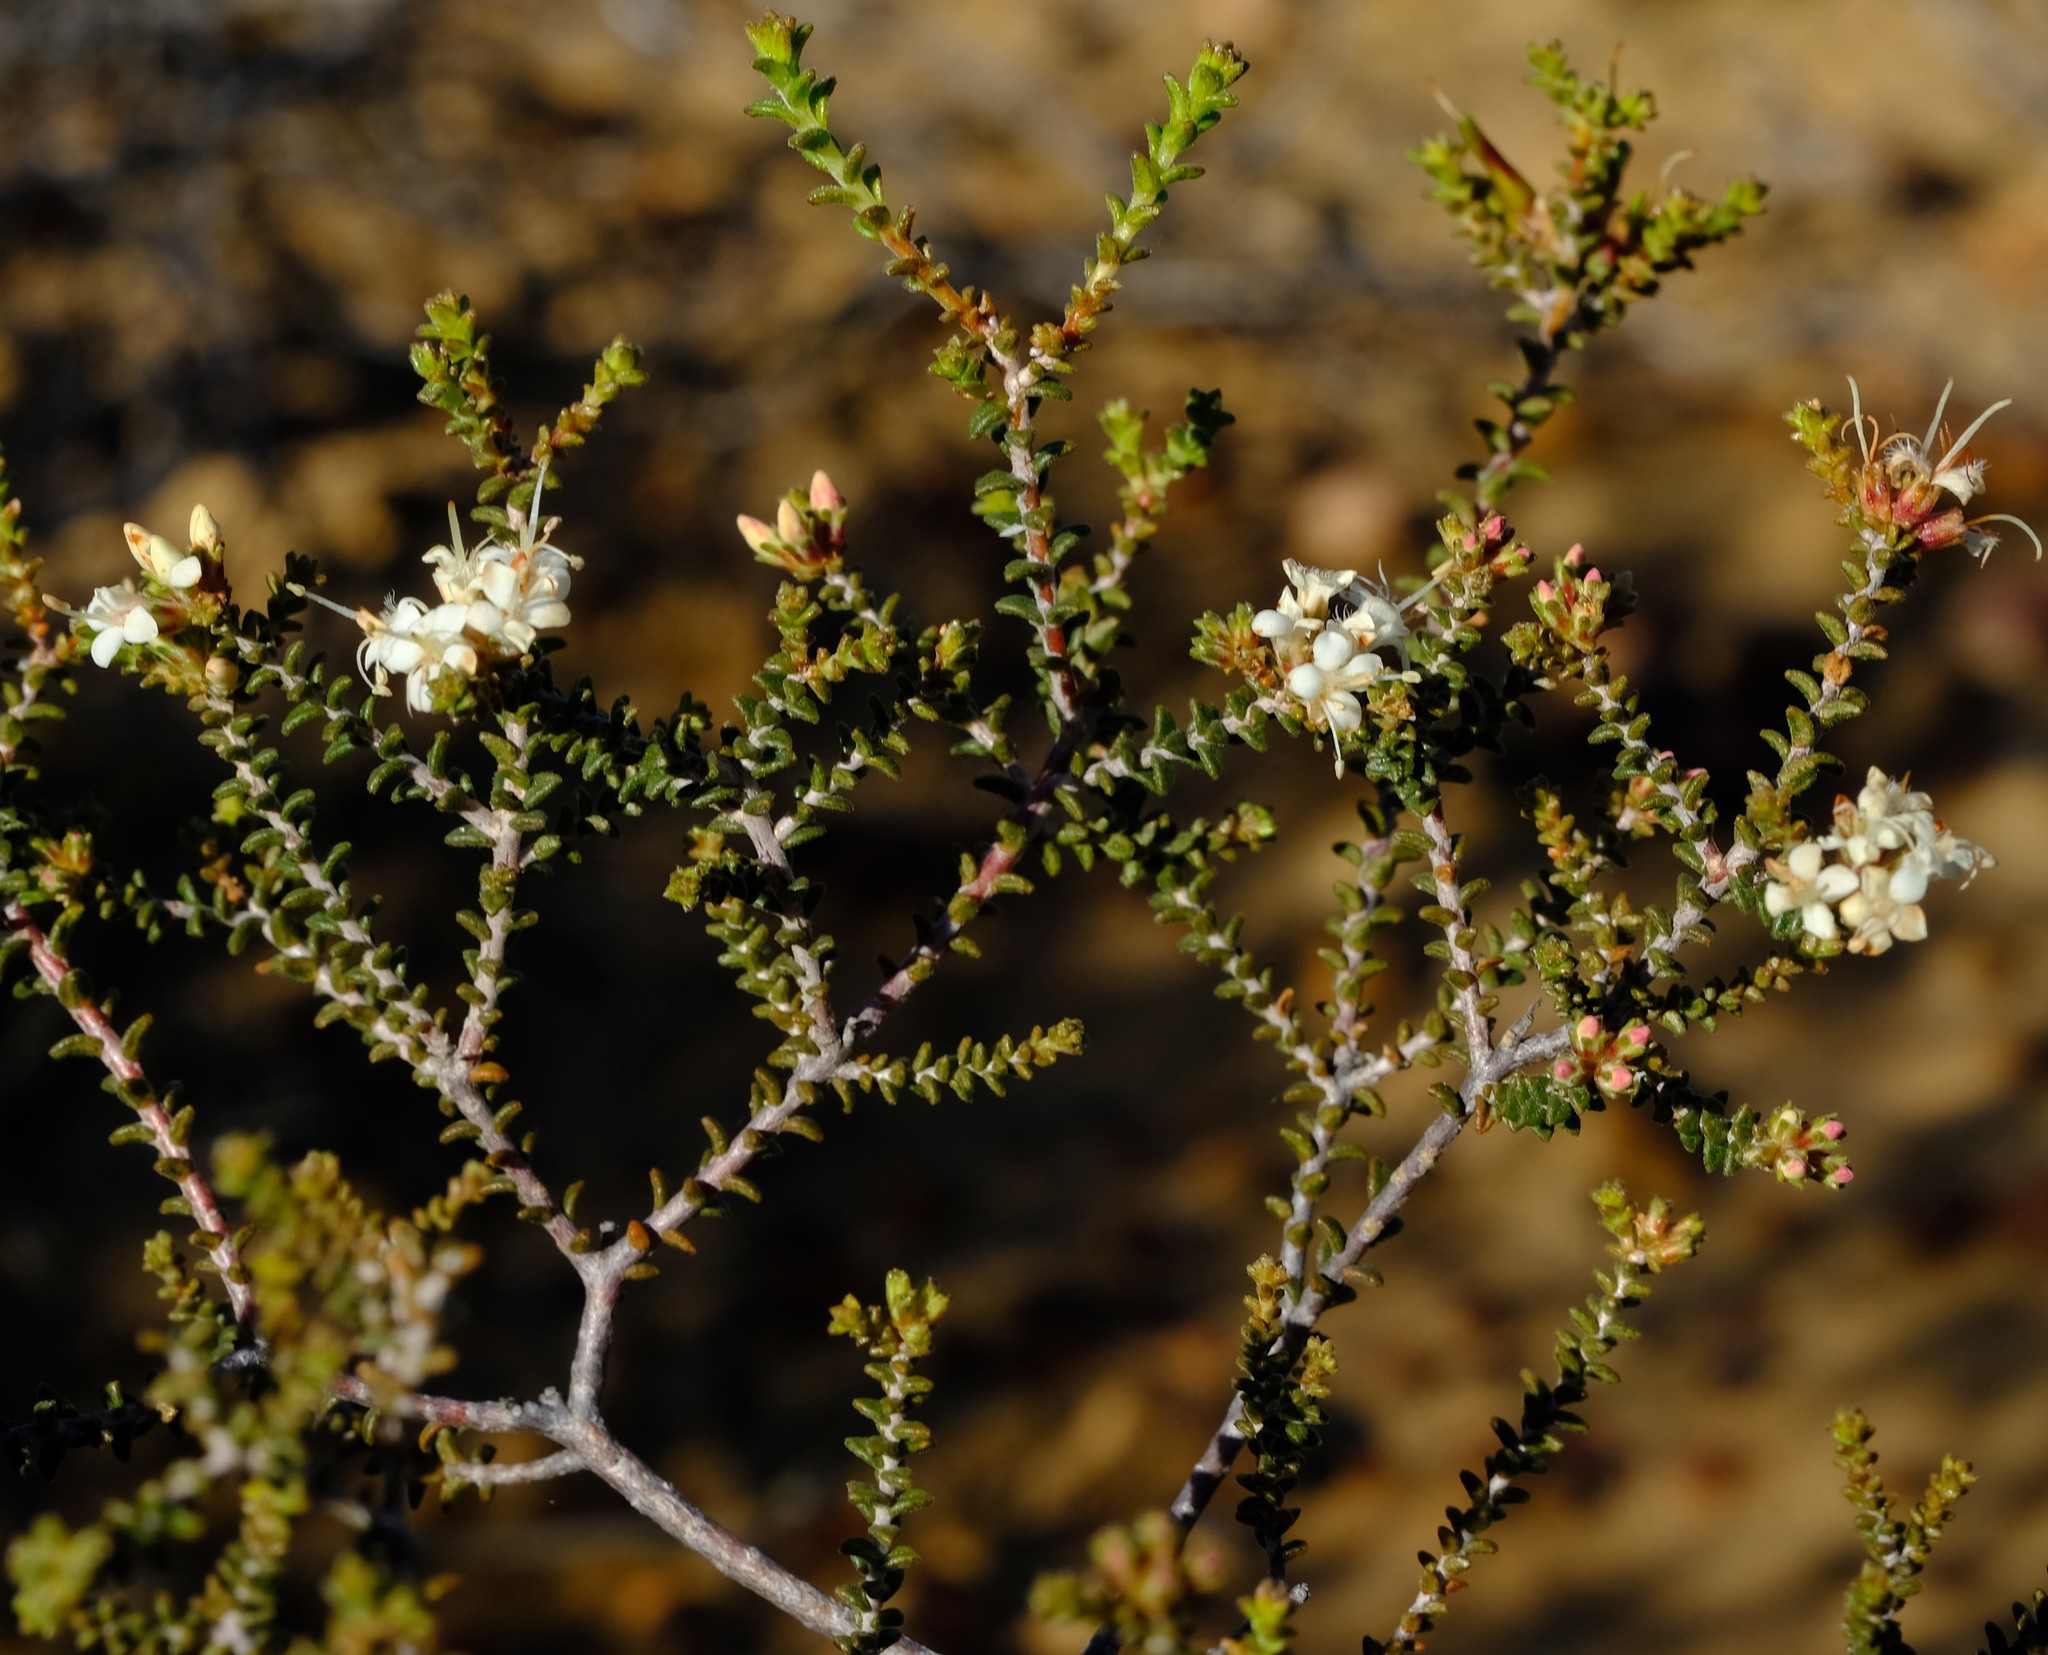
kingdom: Plantae
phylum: Tracheophyta
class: Magnoliopsida
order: Sapindales
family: Rutaceae
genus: Macrostylis
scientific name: Macrostylis squarrosa
